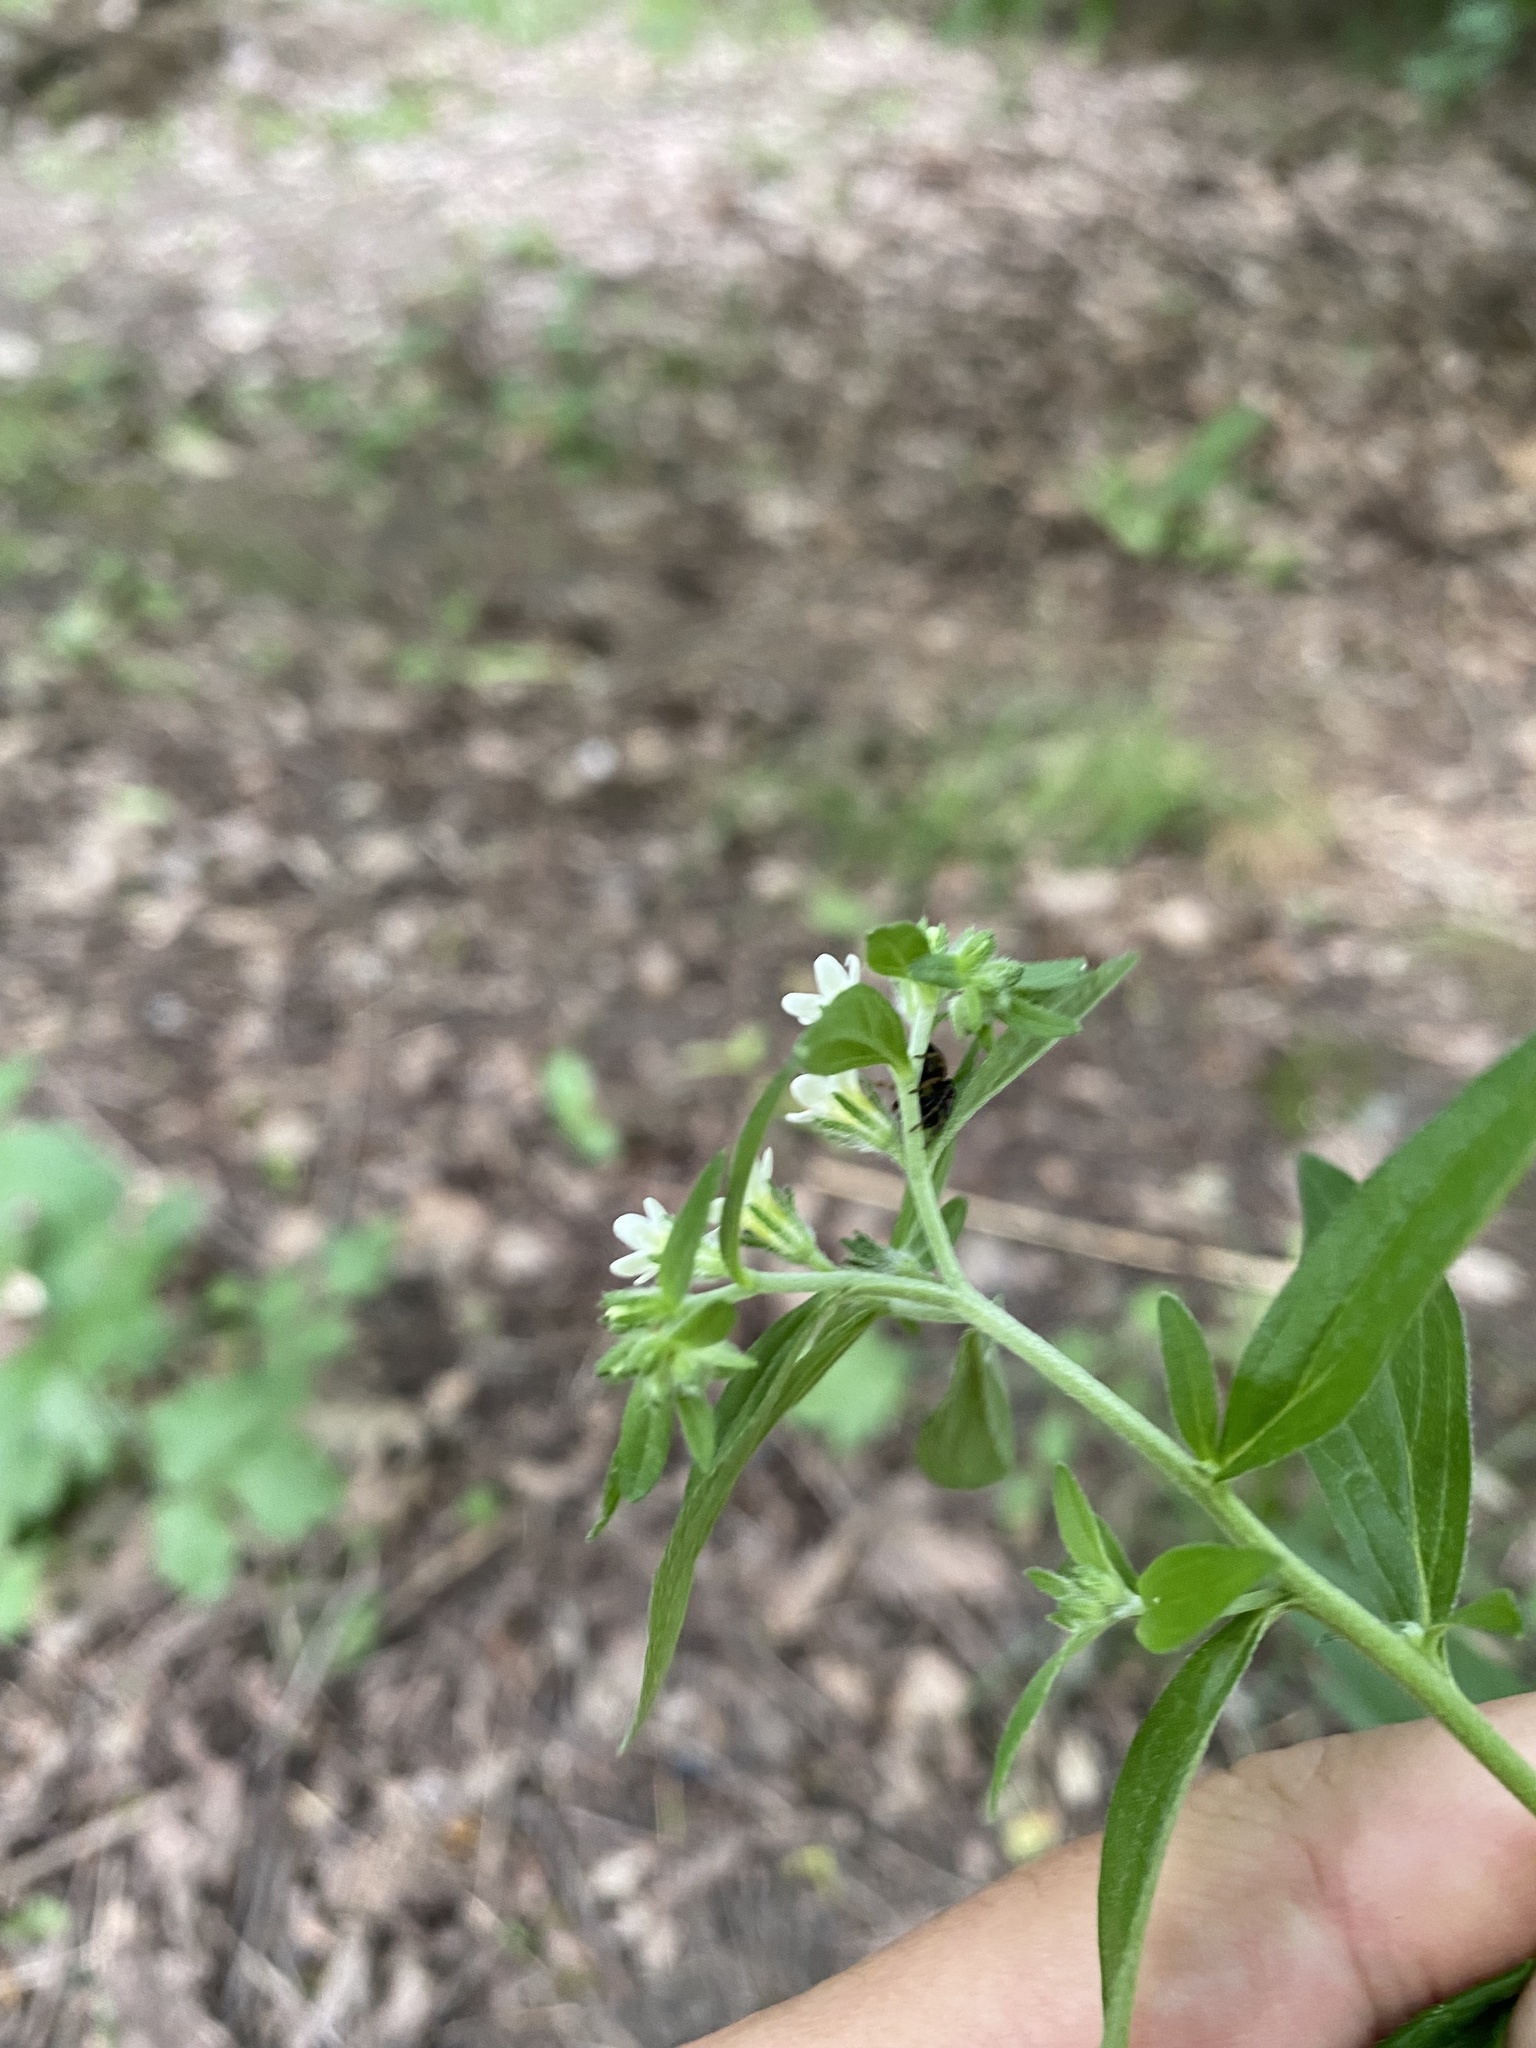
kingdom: Plantae
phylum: Tracheophyta
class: Magnoliopsida
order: Boraginales
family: Boraginaceae
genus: Lithospermum
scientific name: Lithospermum officinale
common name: Common gromwell
